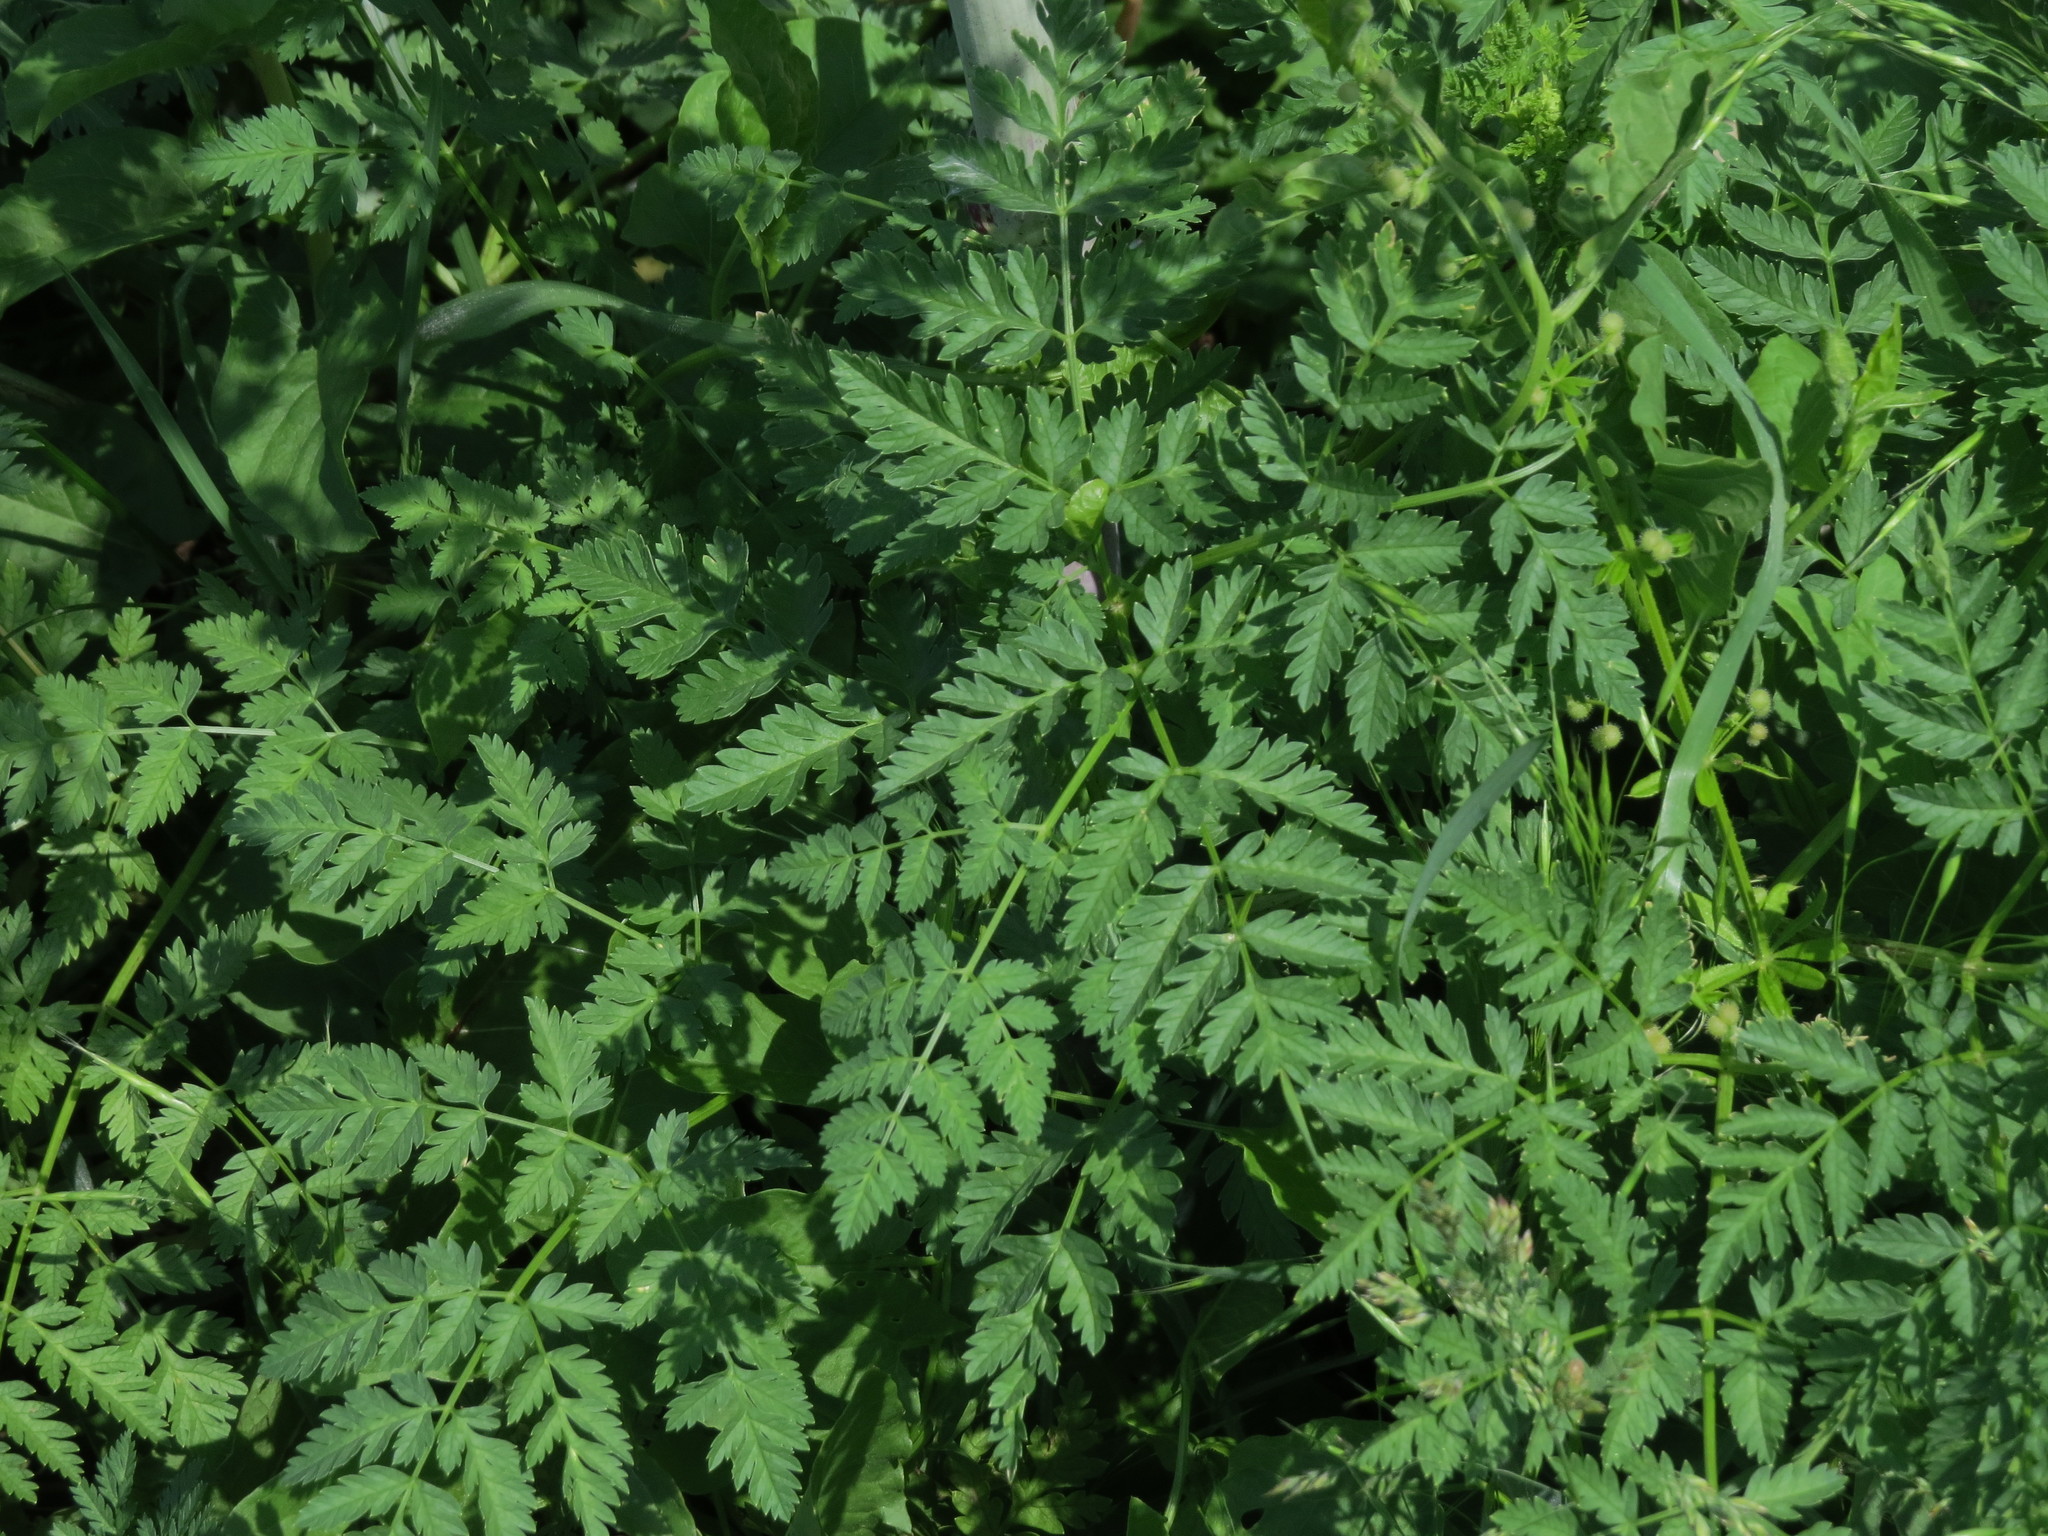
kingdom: Plantae
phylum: Tracheophyta
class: Magnoliopsida
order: Apiales
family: Apiaceae
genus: Conium
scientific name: Conium maculatum
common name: Hemlock
